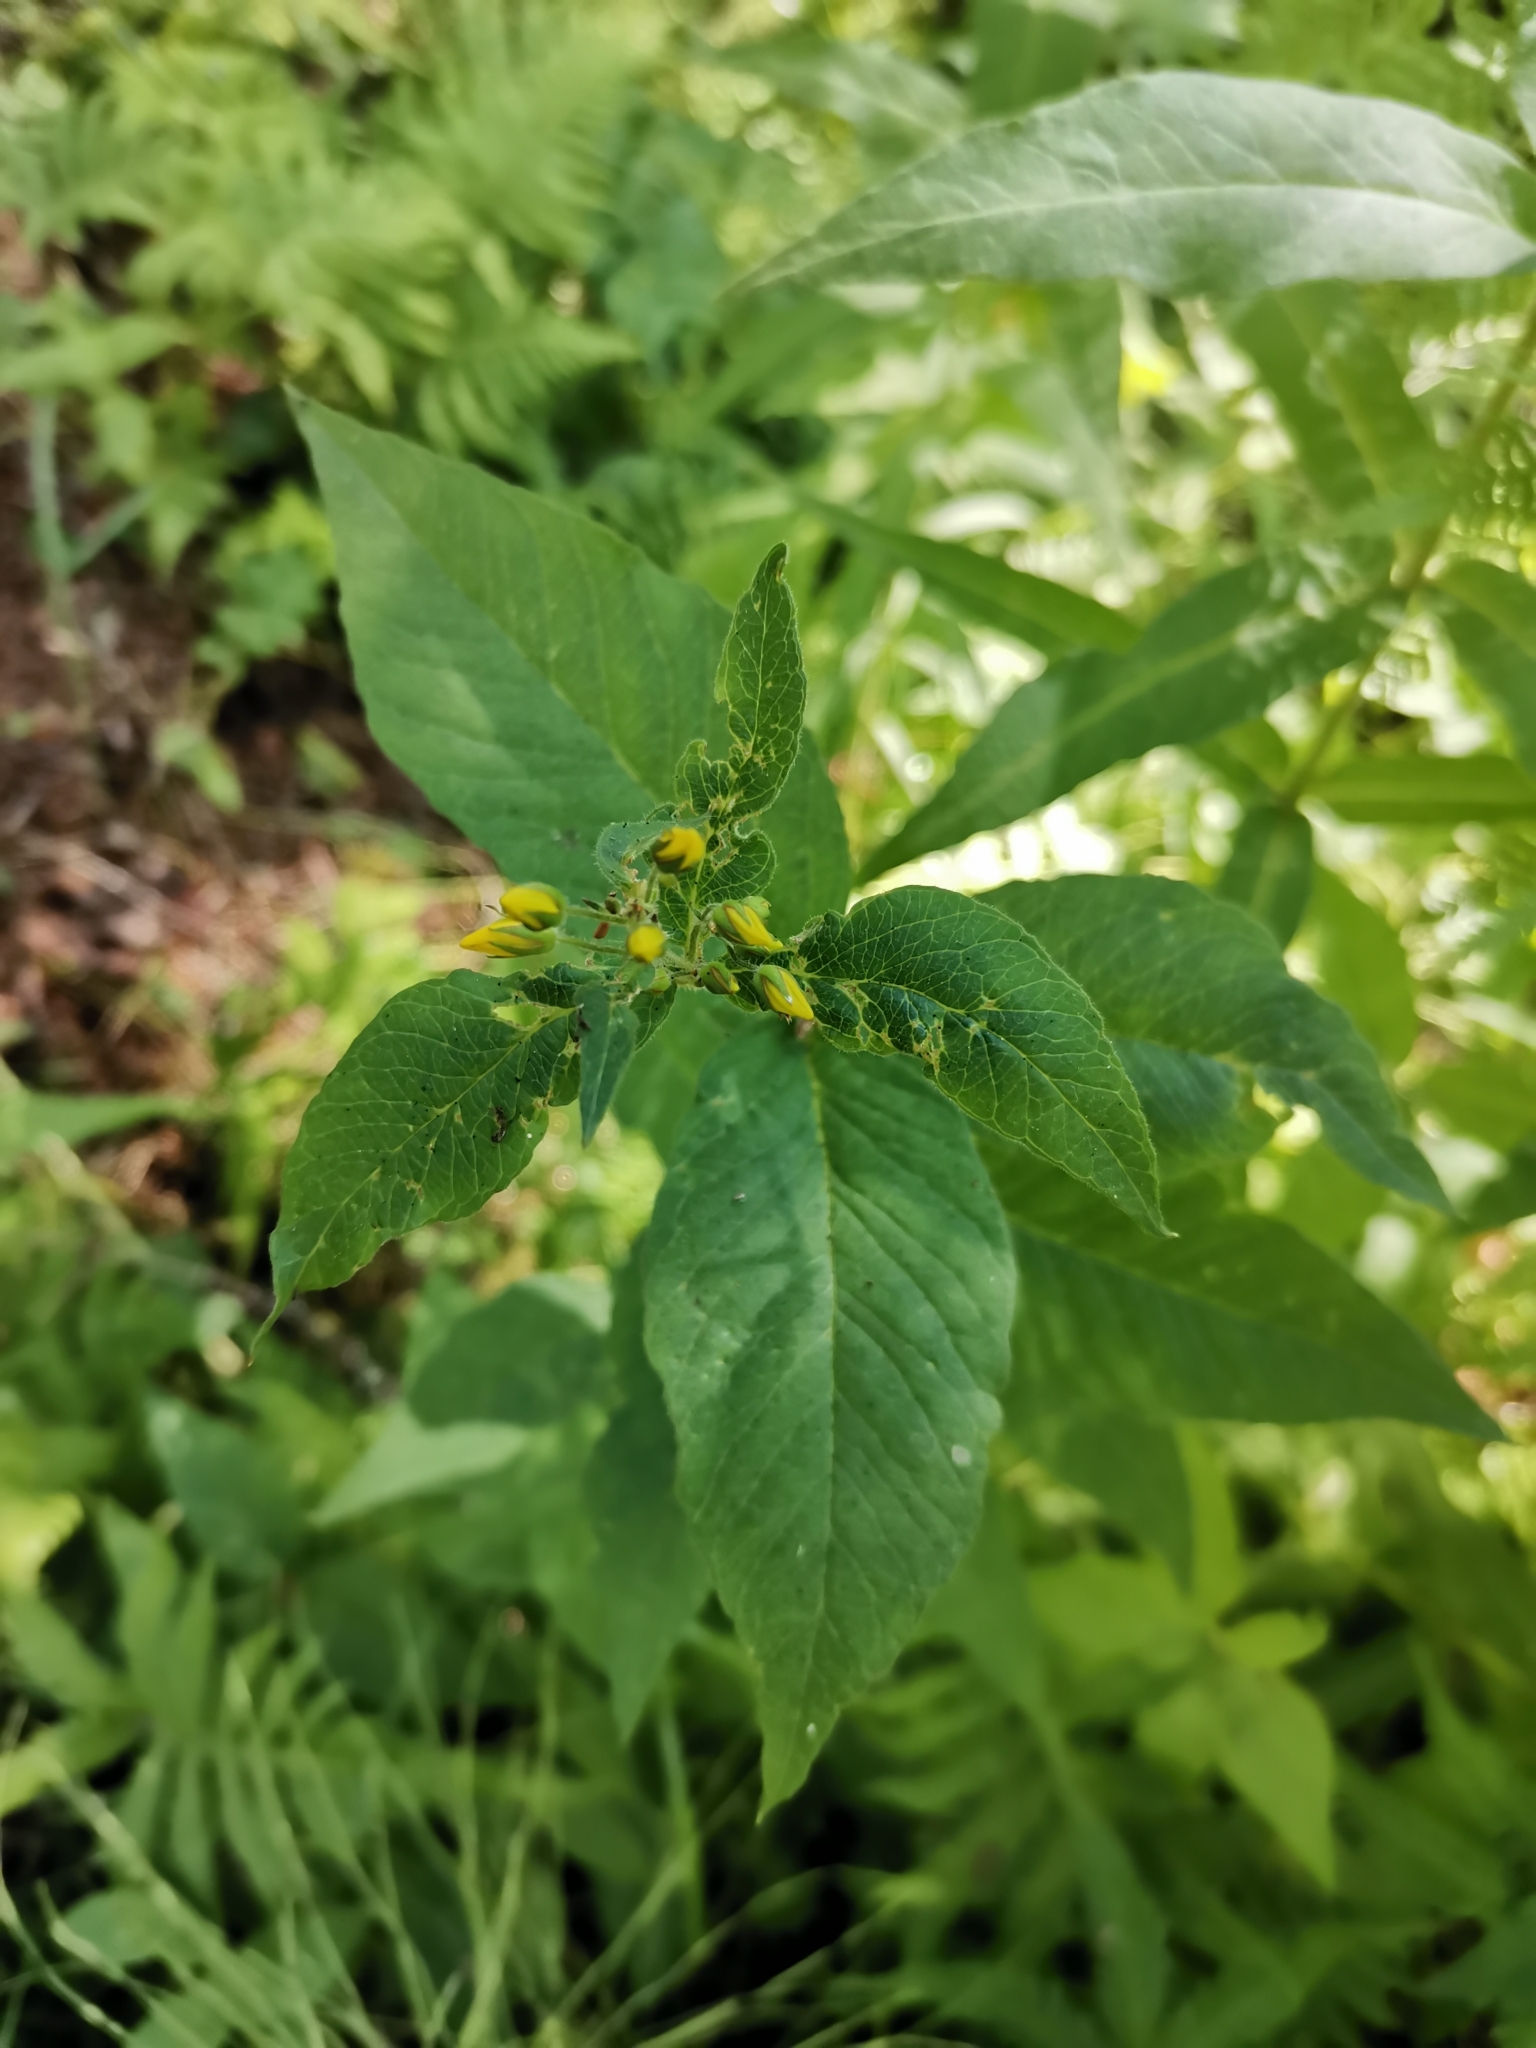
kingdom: Plantae
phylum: Tracheophyta
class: Magnoliopsida
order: Ericales
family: Primulaceae
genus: Lysimachia
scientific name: Lysimachia vulgaris
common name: Yellow loosestrife
